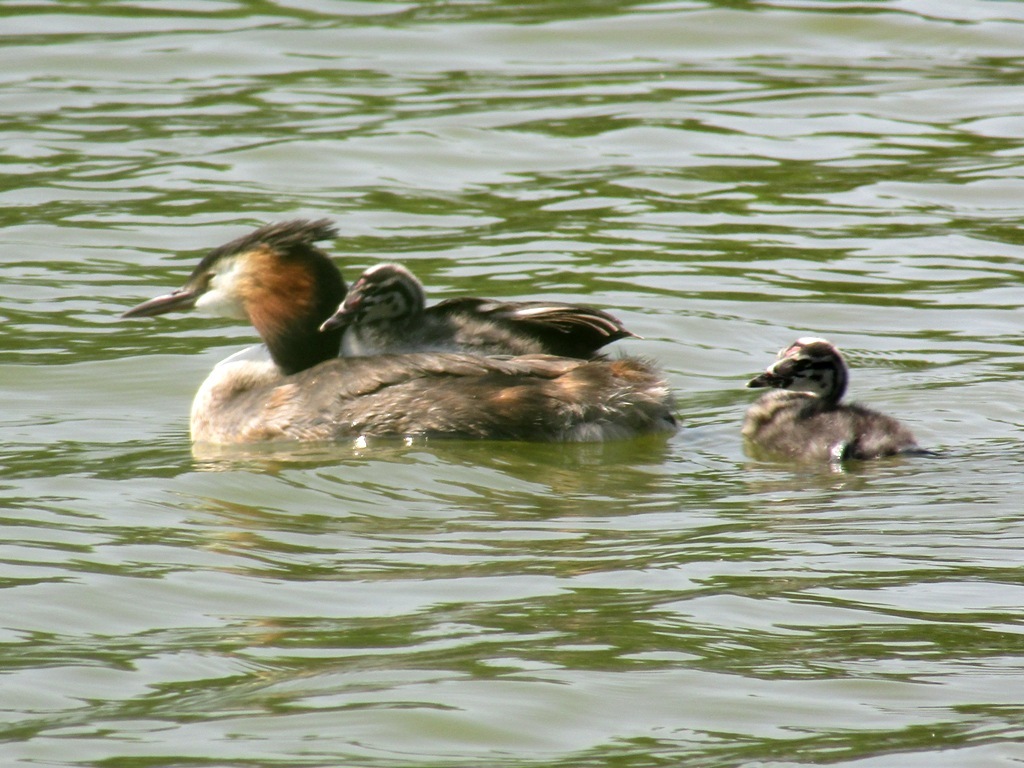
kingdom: Animalia
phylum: Chordata
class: Aves
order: Podicipediformes
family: Podicipedidae
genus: Podiceps
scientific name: Podiceps cristatus
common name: Great crested grebe
